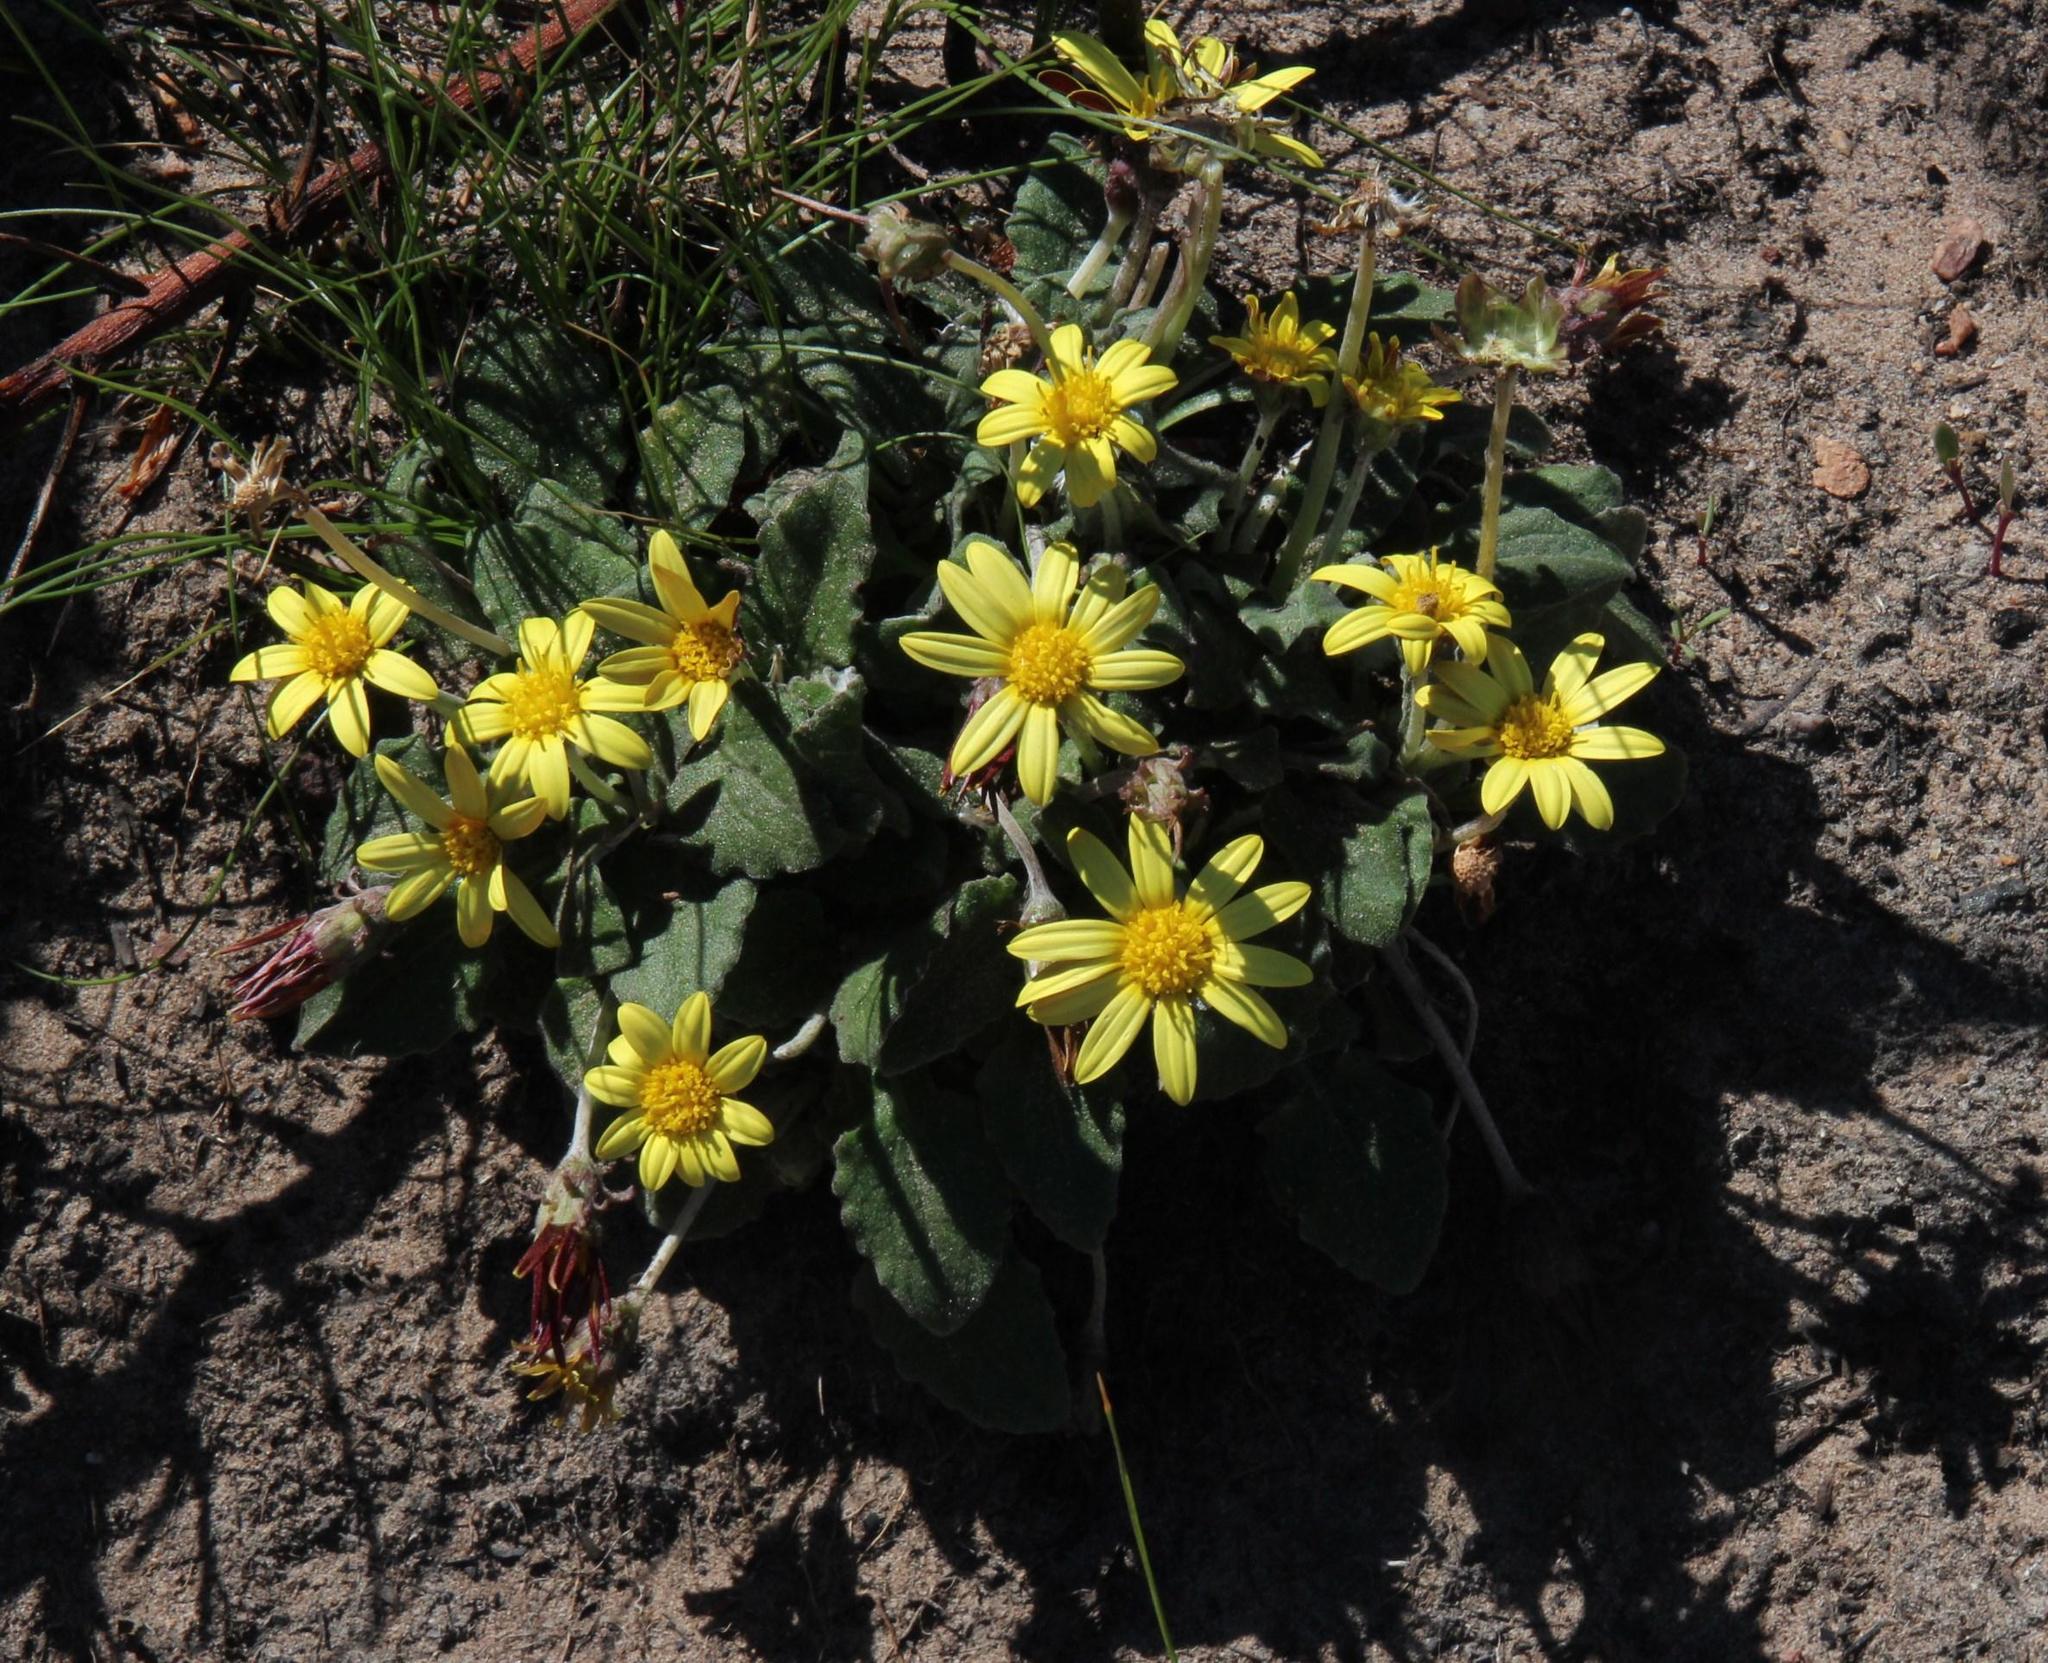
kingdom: Plantae
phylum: Tracheophyta
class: Magnoliopsida
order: Asterales
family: Asteraceae
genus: Haplocarpha
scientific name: Haplocarpha lanata
